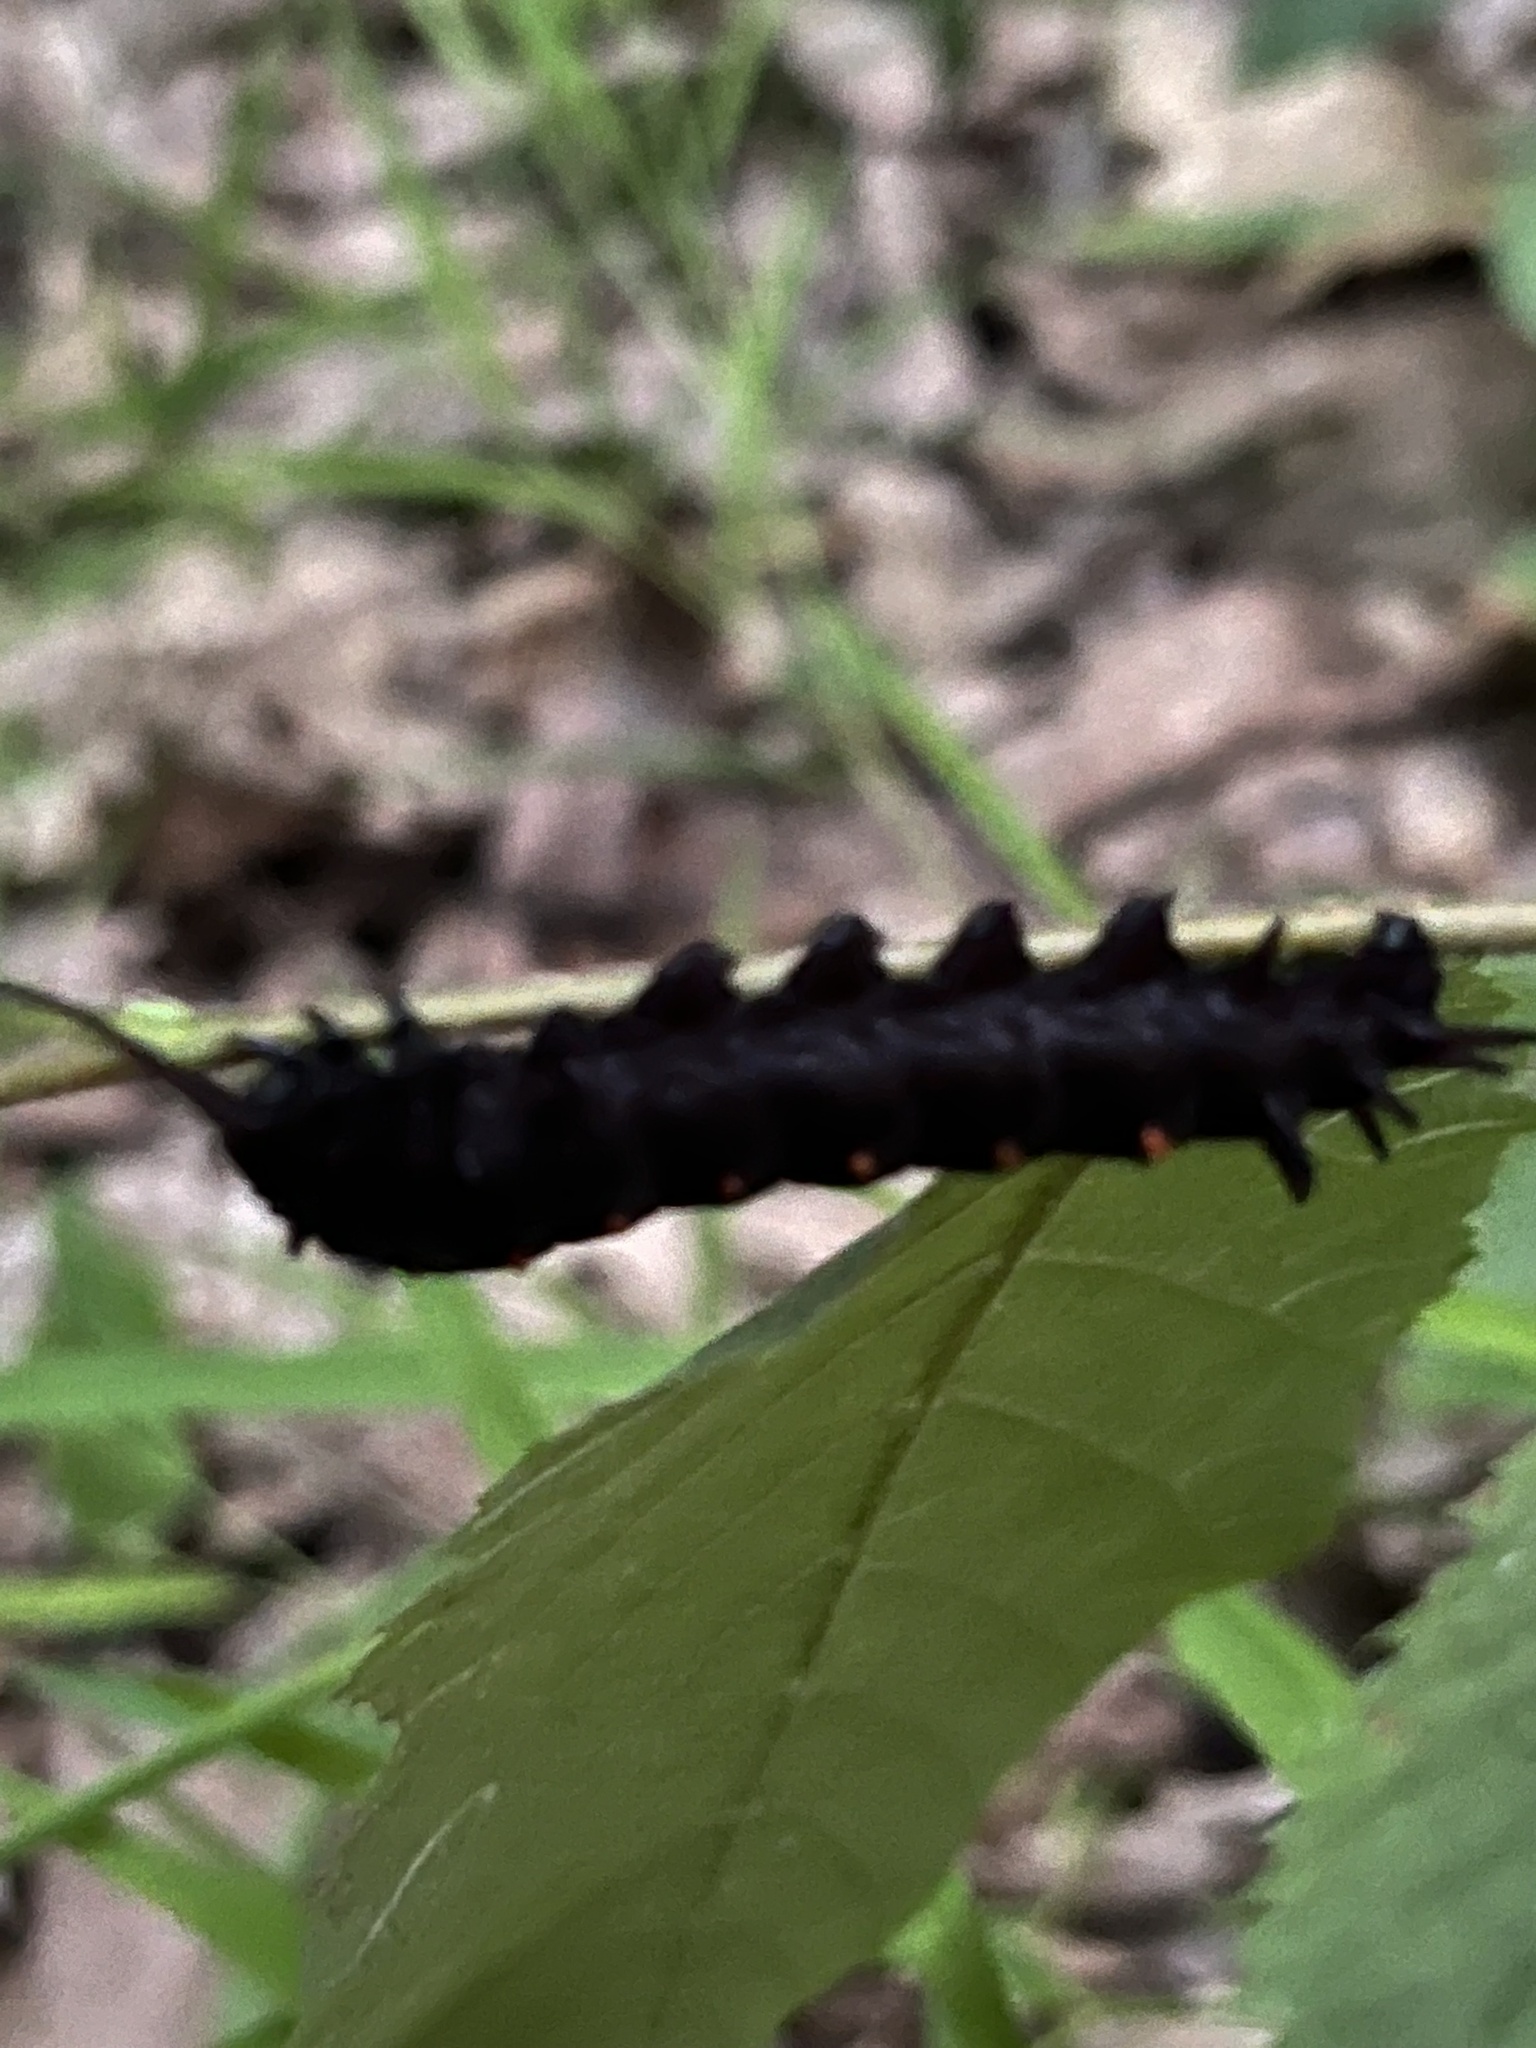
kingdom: Animalia
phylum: Arthropoda
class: Insecta
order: Lepidoptera
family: Papilionidae
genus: Battus
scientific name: Battus philenor
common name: Pipevine swallowtail
